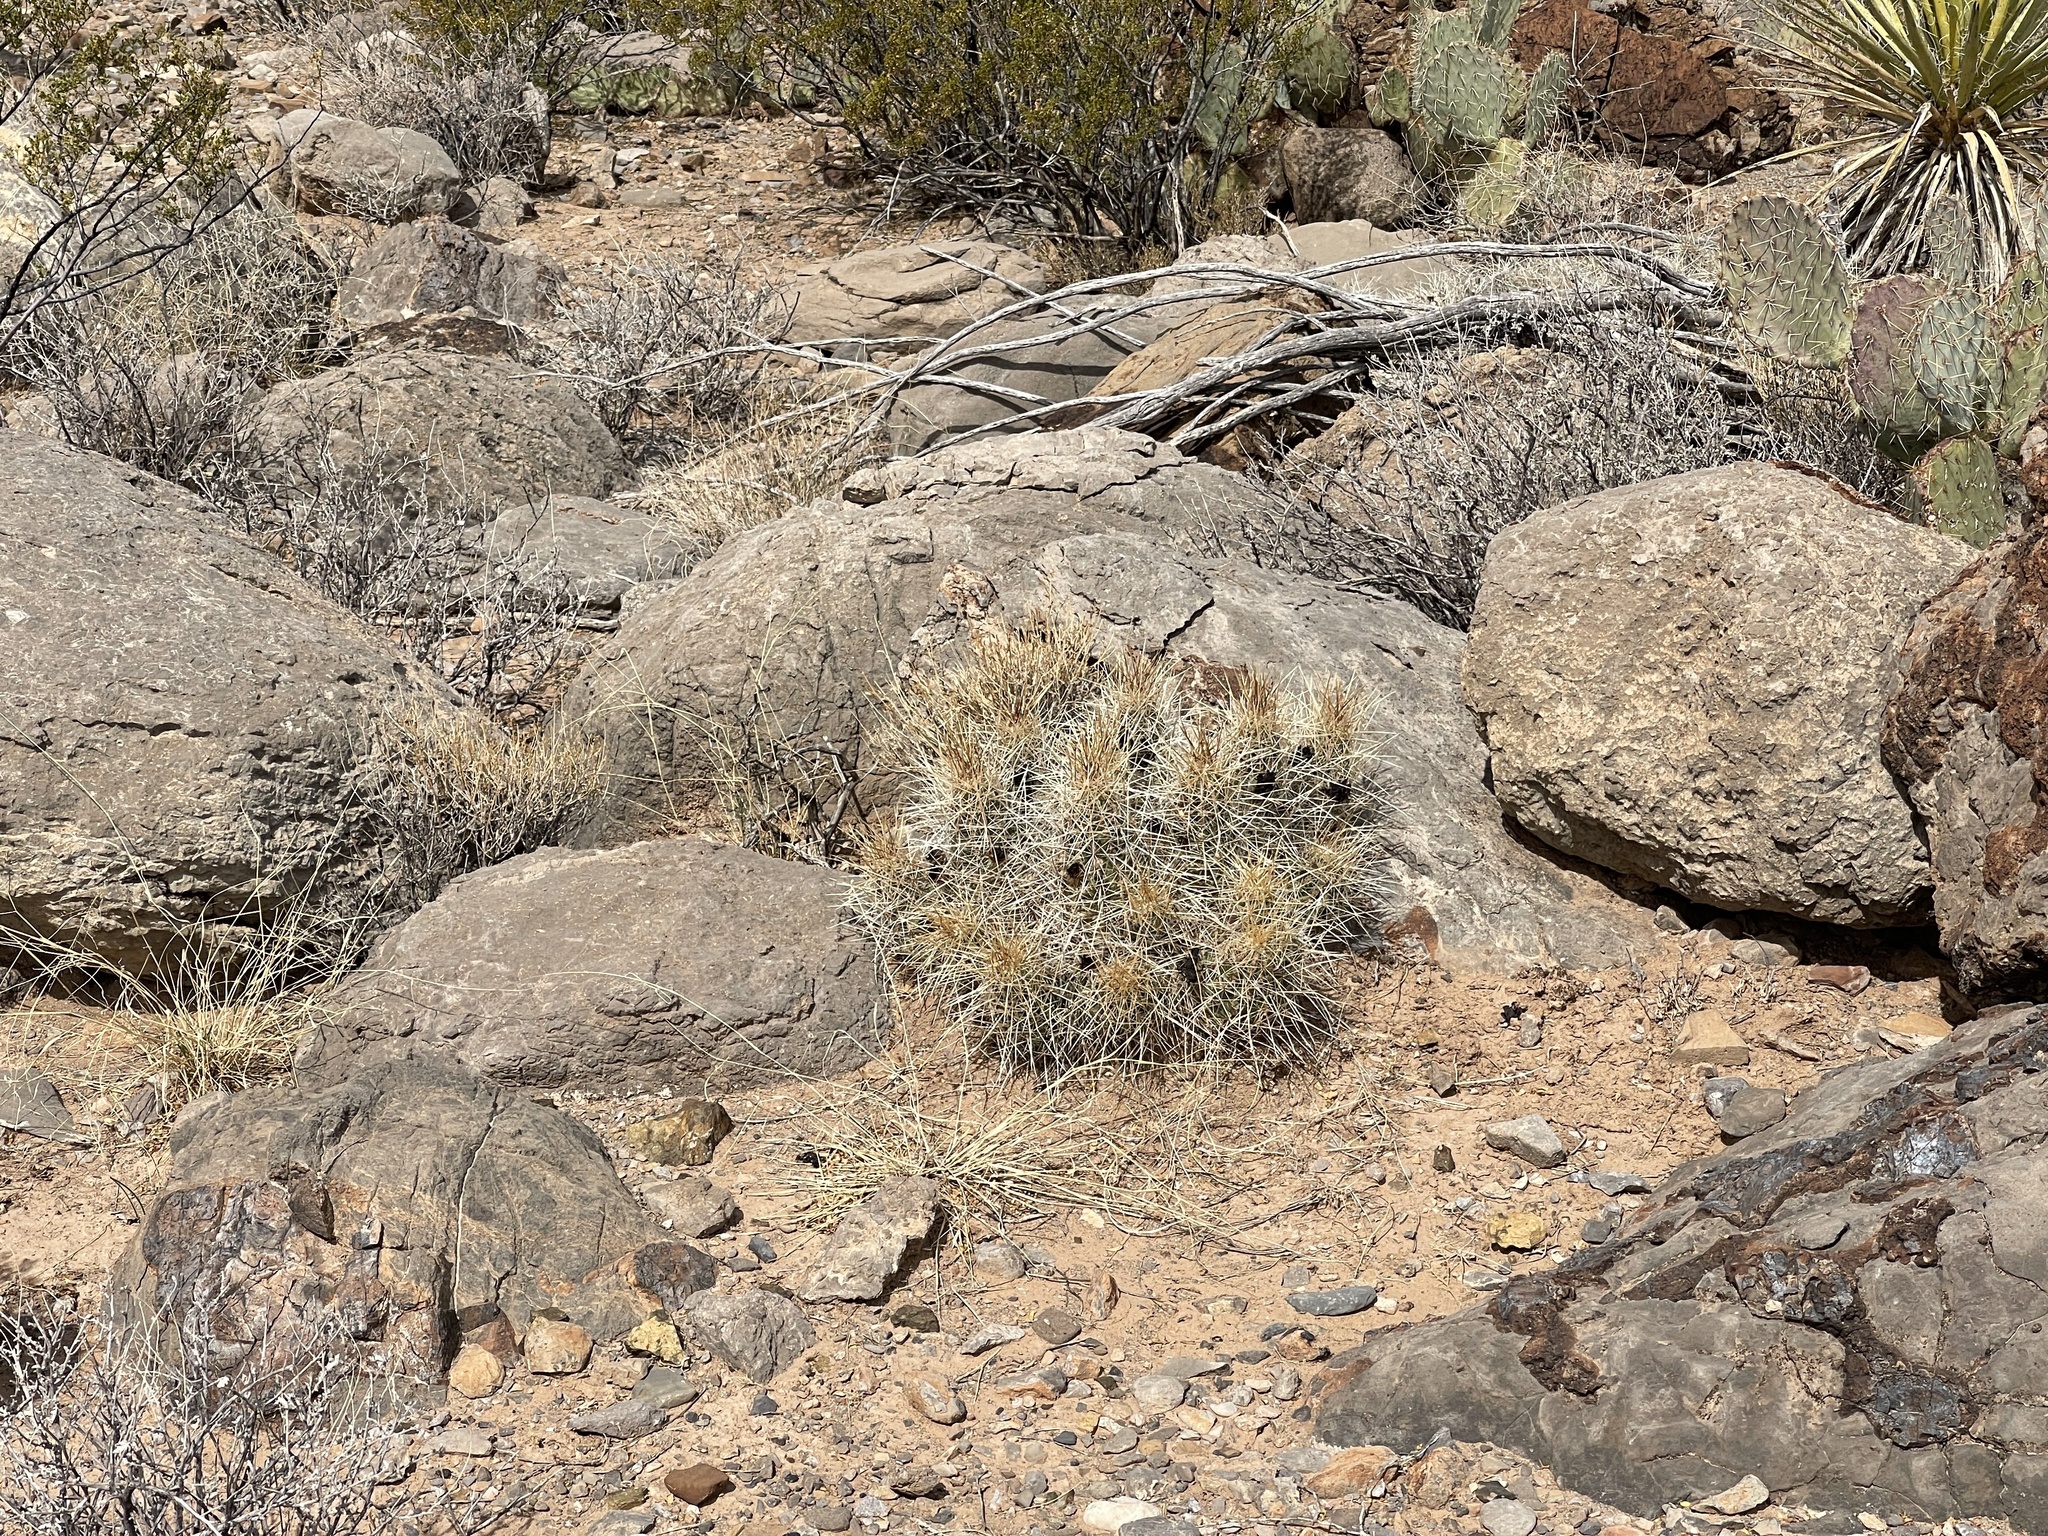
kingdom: Plantae
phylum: Tracheophyta
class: Magnoliopsida
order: Caryophyllales
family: Cactaceae
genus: Echinocereus
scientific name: Echinocereus stramineus
